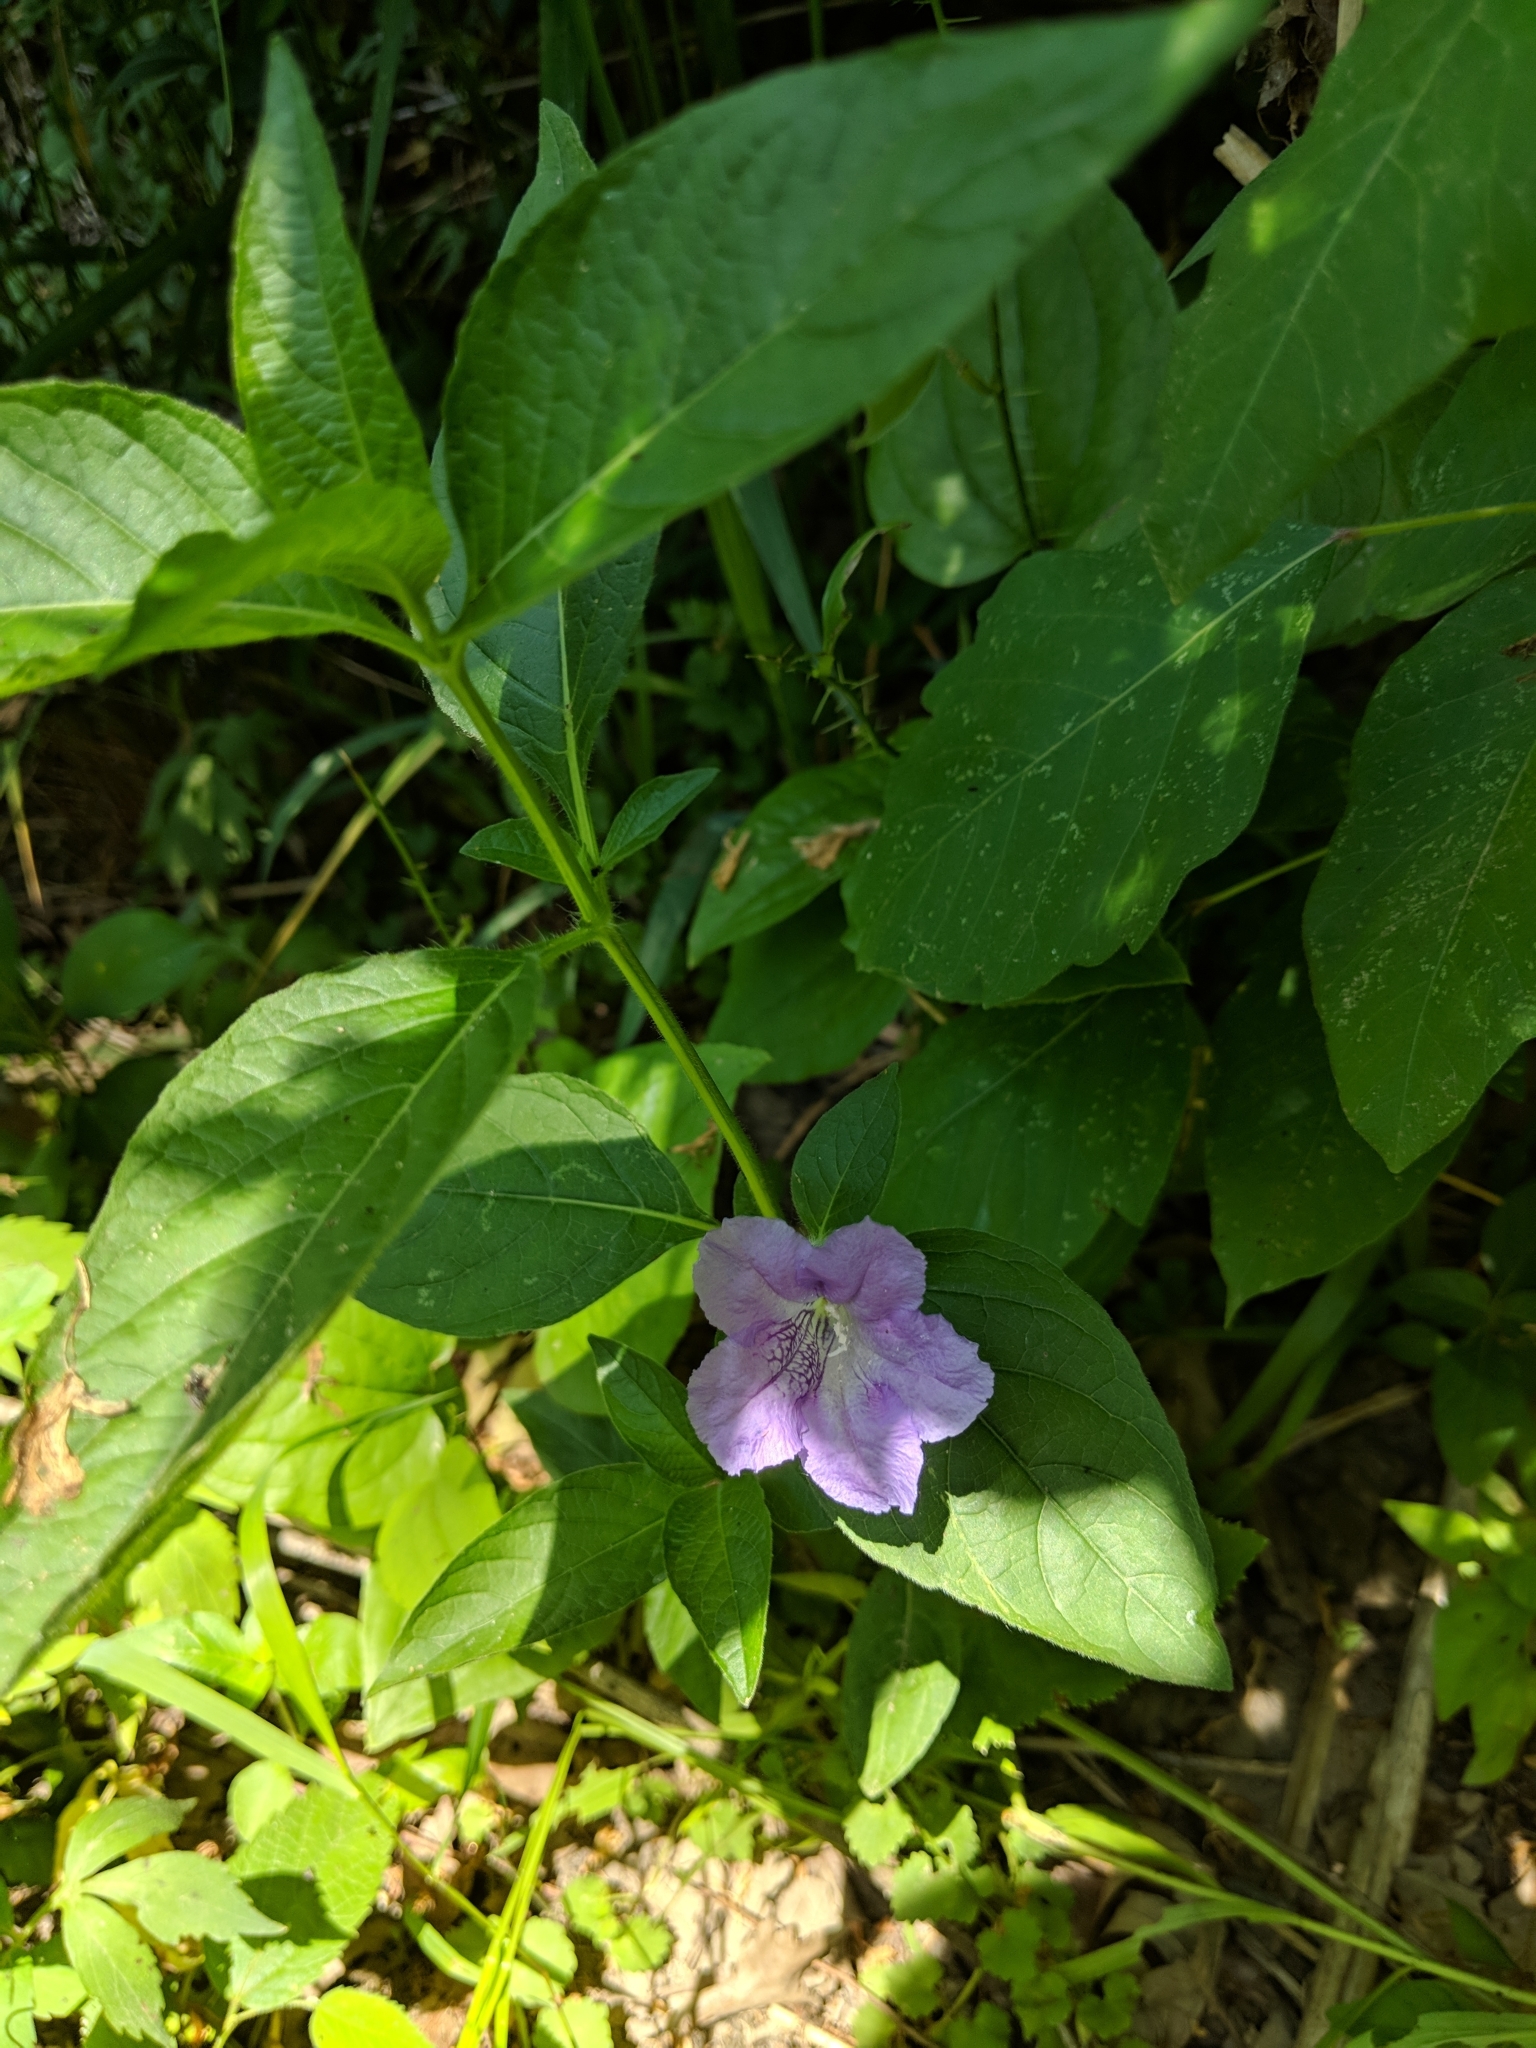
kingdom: Plantae
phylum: Tracheophyta
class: Magnoliopsida
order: Lamiales
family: Acanthaceae
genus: Ruellia
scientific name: Ruellia strepens
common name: Limestone wild petunia
